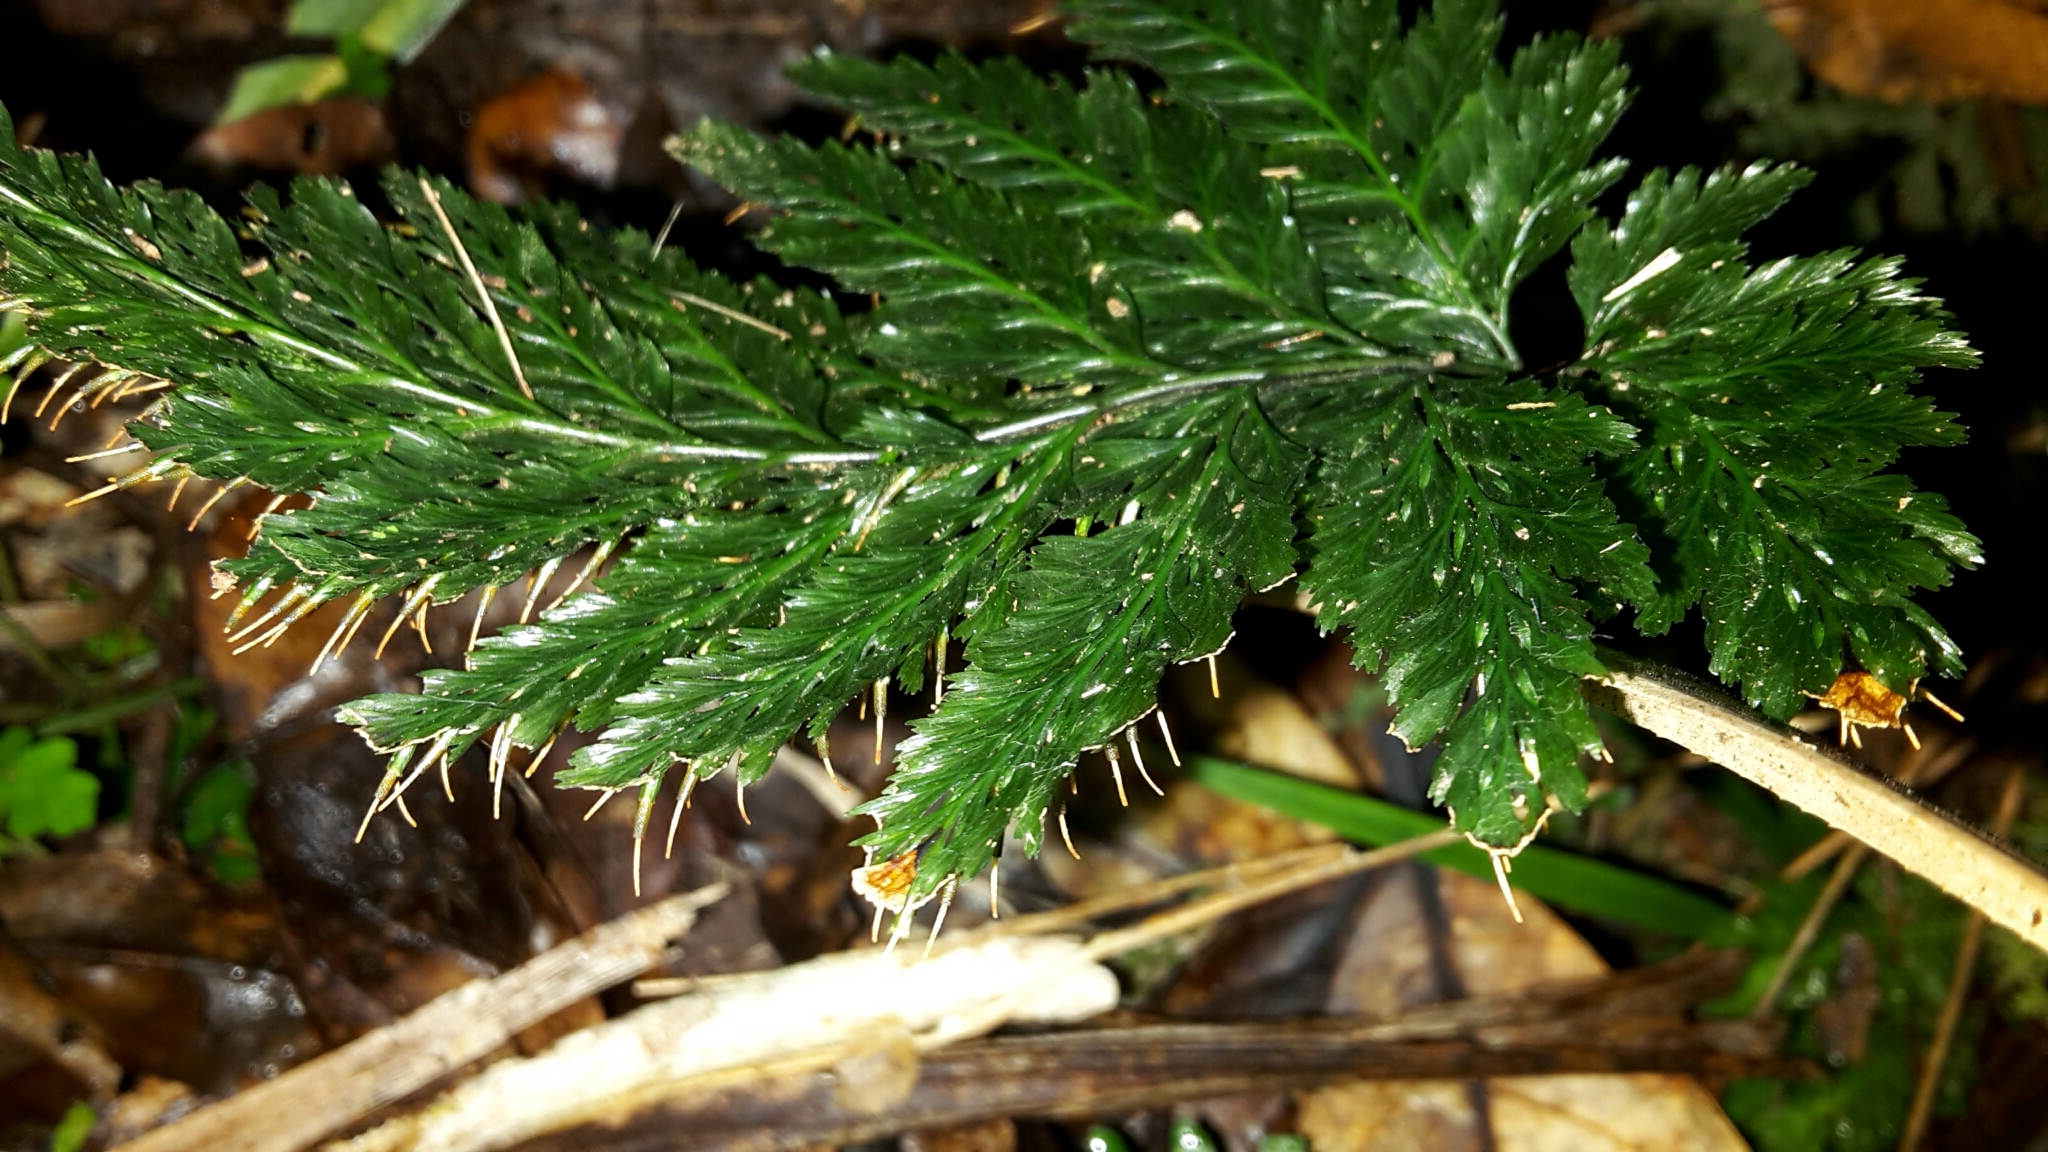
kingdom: Plantae
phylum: Tracheophyta
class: Polypodiopsida
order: Hymenophyllales
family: Hymenophyllaceae
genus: Abrodictyum
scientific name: Abrodictyum elongatum
